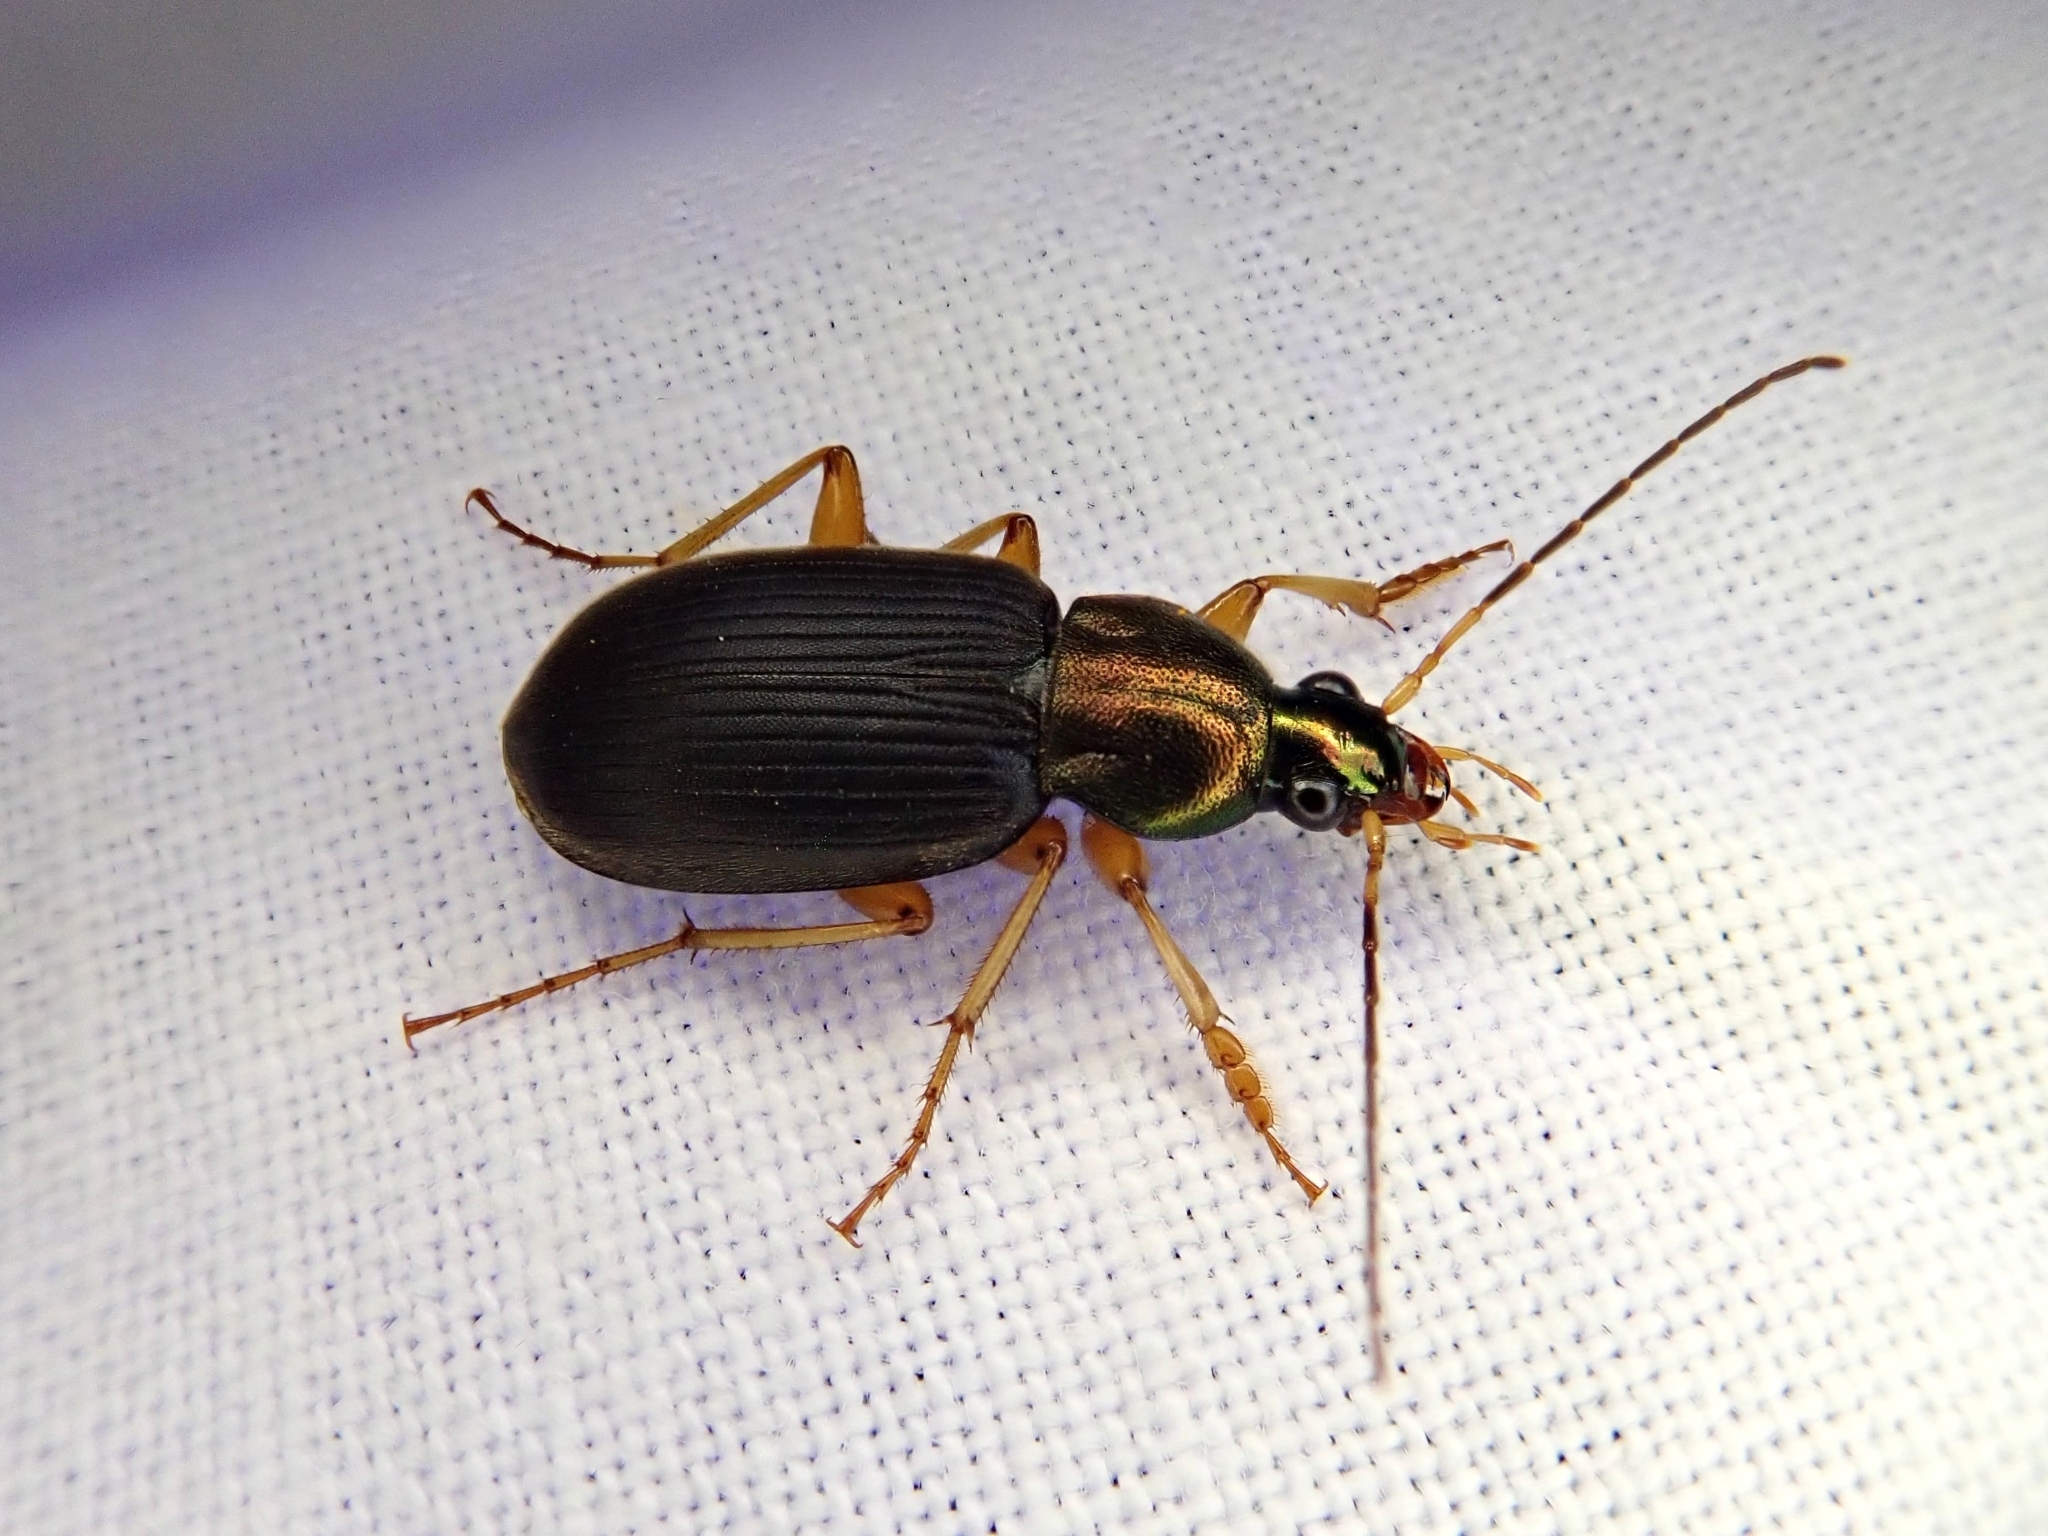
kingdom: Animalia
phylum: Arthropoda
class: Insecta
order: Coleoptera
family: Carabidae
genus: Chlaenius
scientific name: Chlaenius tricolor
